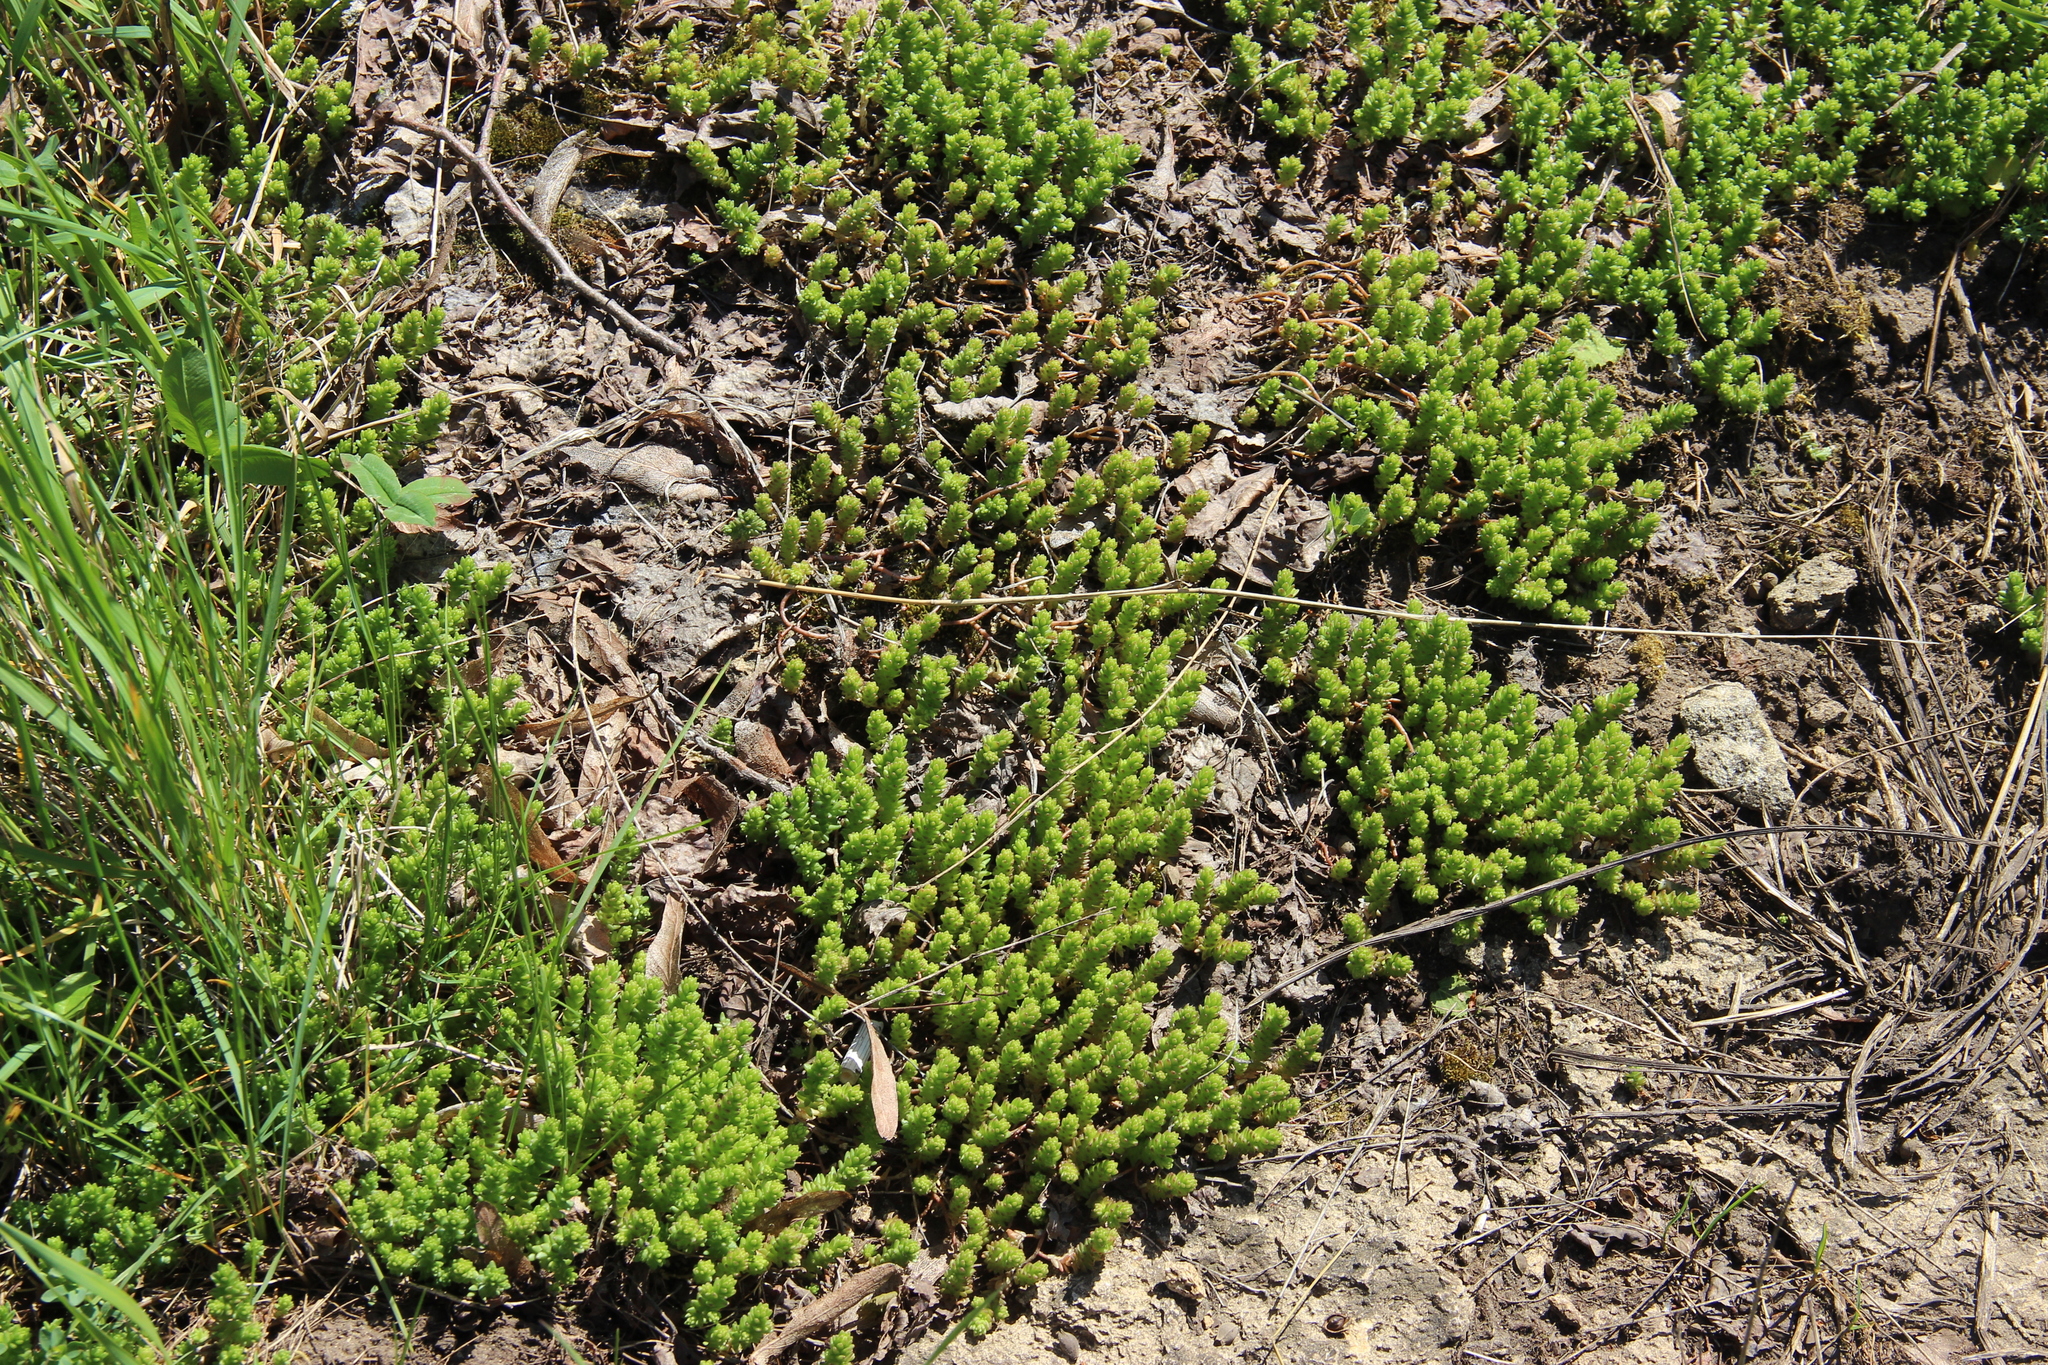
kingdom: Plantae
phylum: Tracheophyta
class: Magnoliopsida
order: Saxifragales
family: Crassulaceae
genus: Sedum
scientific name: Sedum acre
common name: Biting stonecrop
